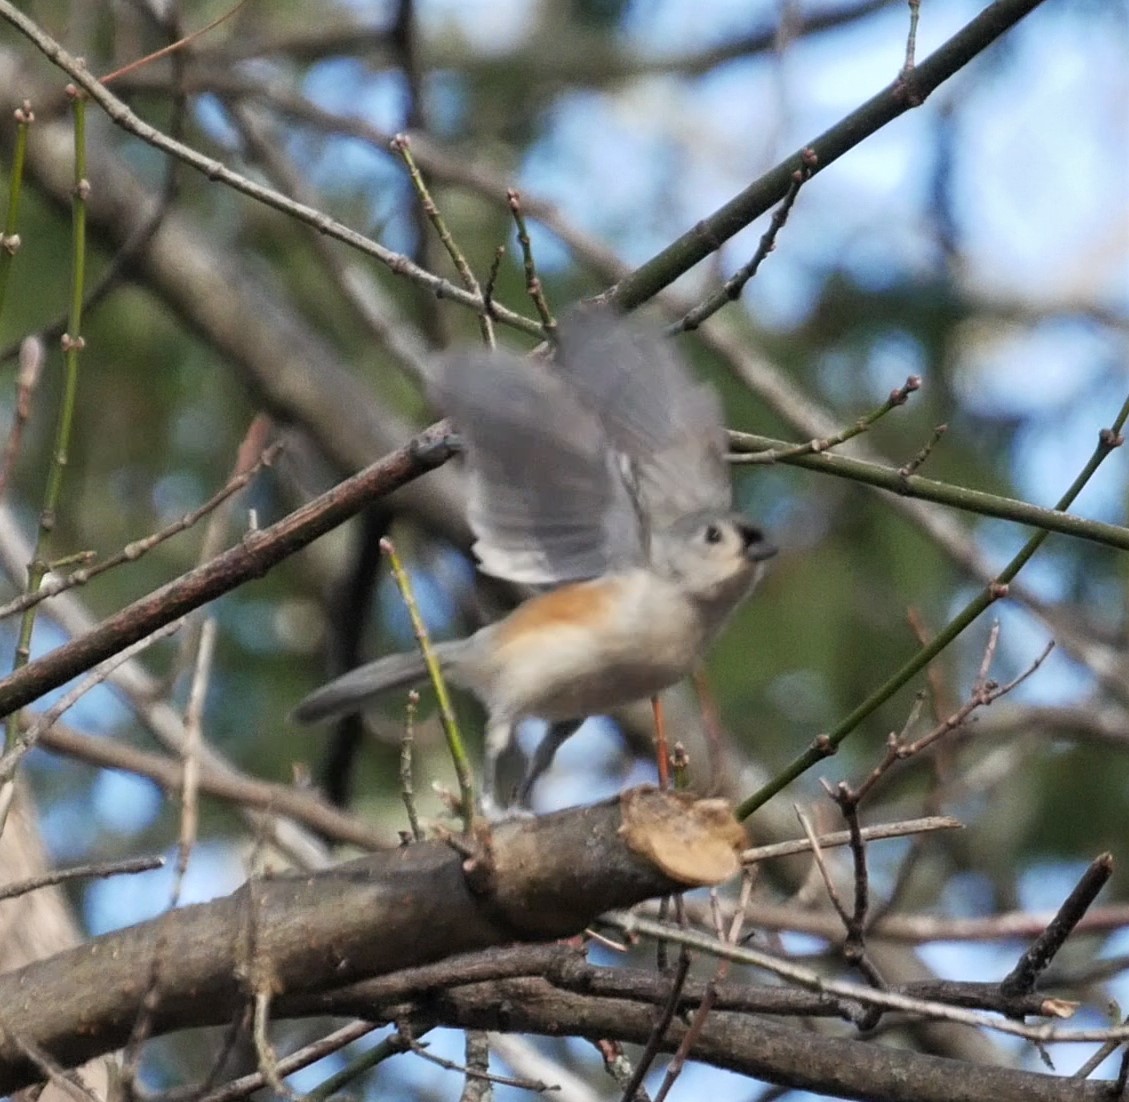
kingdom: Animalia
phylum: Chordata
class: Aves
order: Passeriformes
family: Paridae
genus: Baeolophus
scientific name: Baeolophus bicolor
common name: Tufted titmouse
